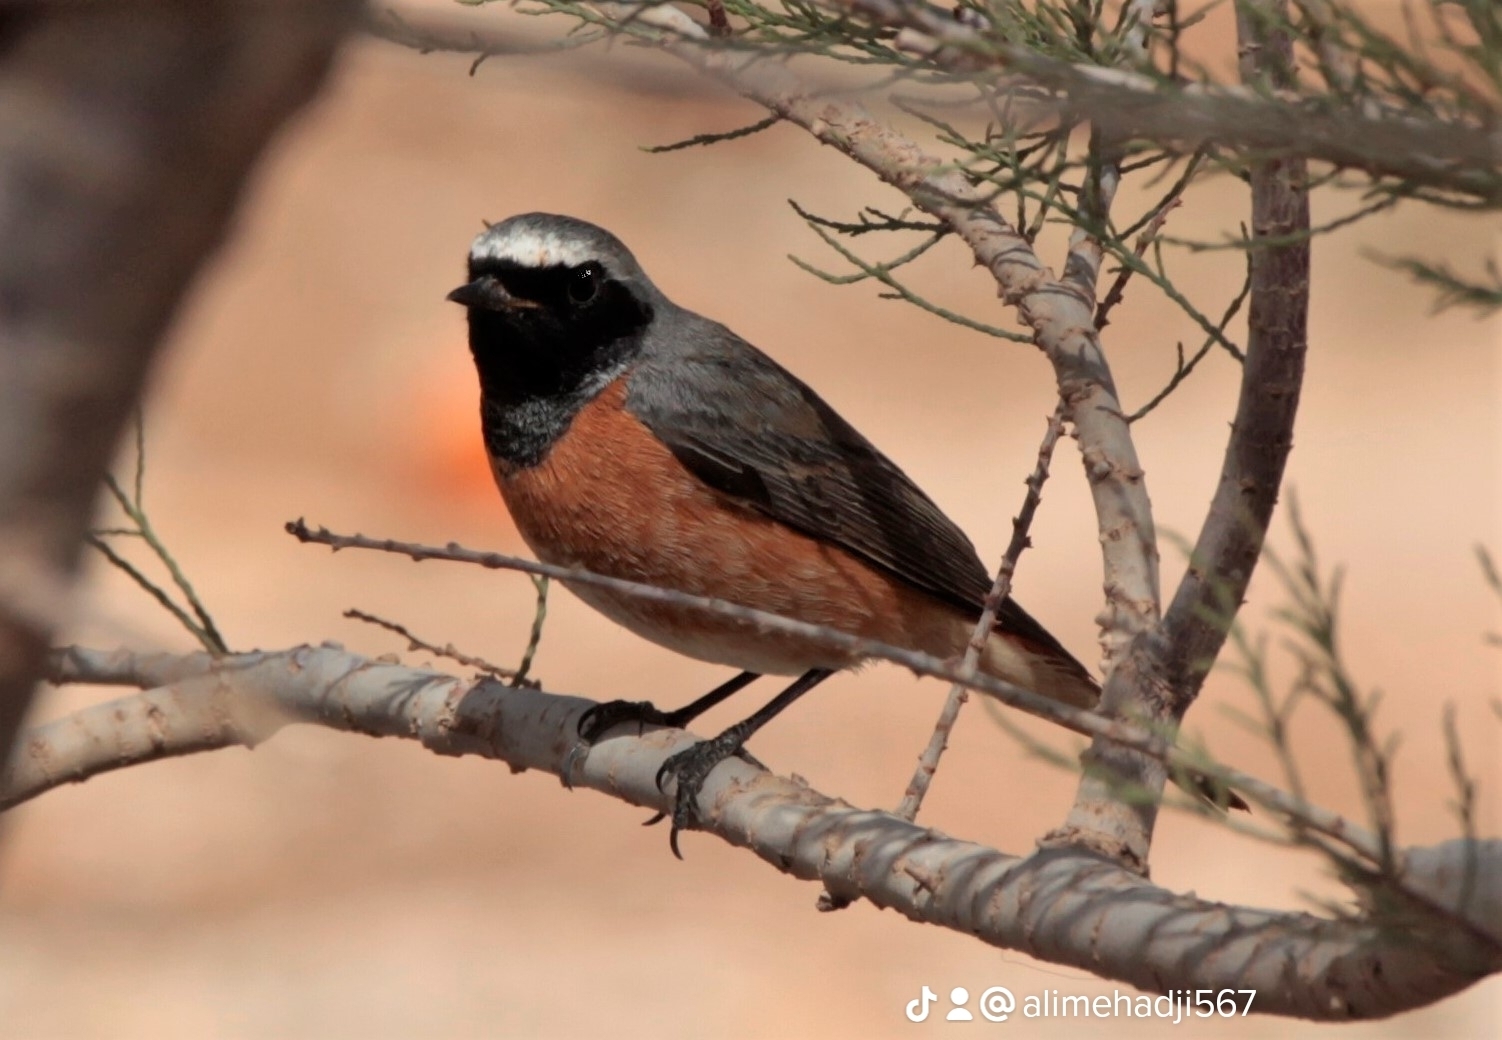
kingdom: Animalia
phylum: Chordata
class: Aves
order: Passeriformes
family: Muscicapidae
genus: Phoenicurus
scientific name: Phoenicurus phoenicurus
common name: Common redstart
